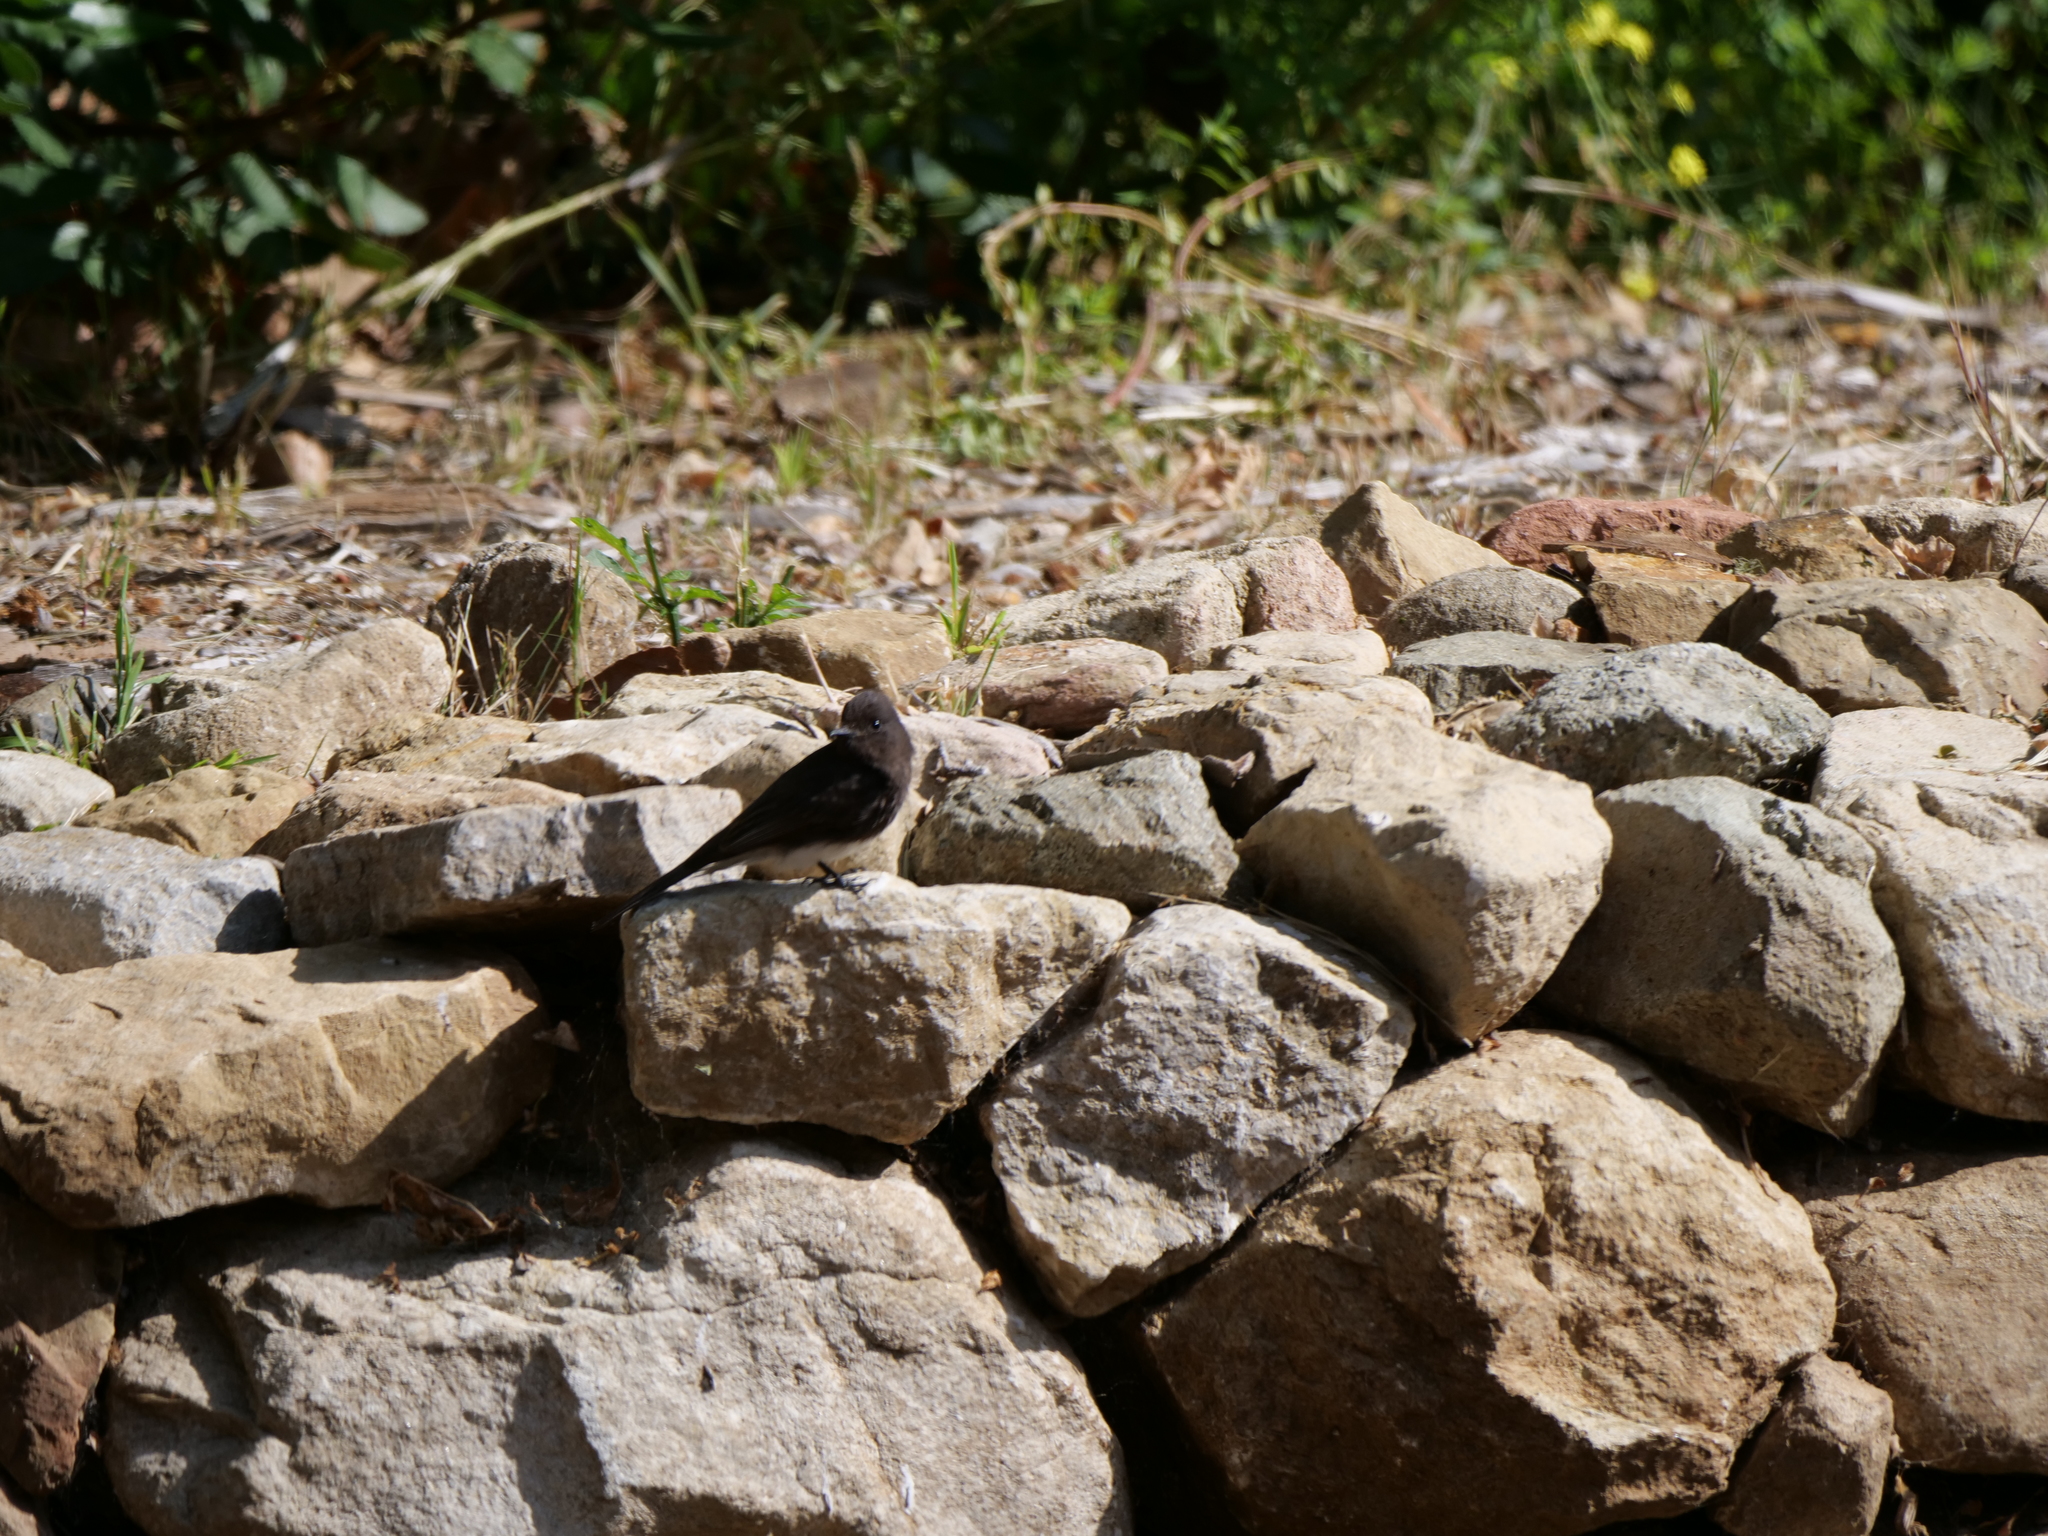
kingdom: Animalia
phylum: Chordata
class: Aves
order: Passeriformes
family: Tyrannidae
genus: Sayornis
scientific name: Sayornis nigricans
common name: Black phoebe
